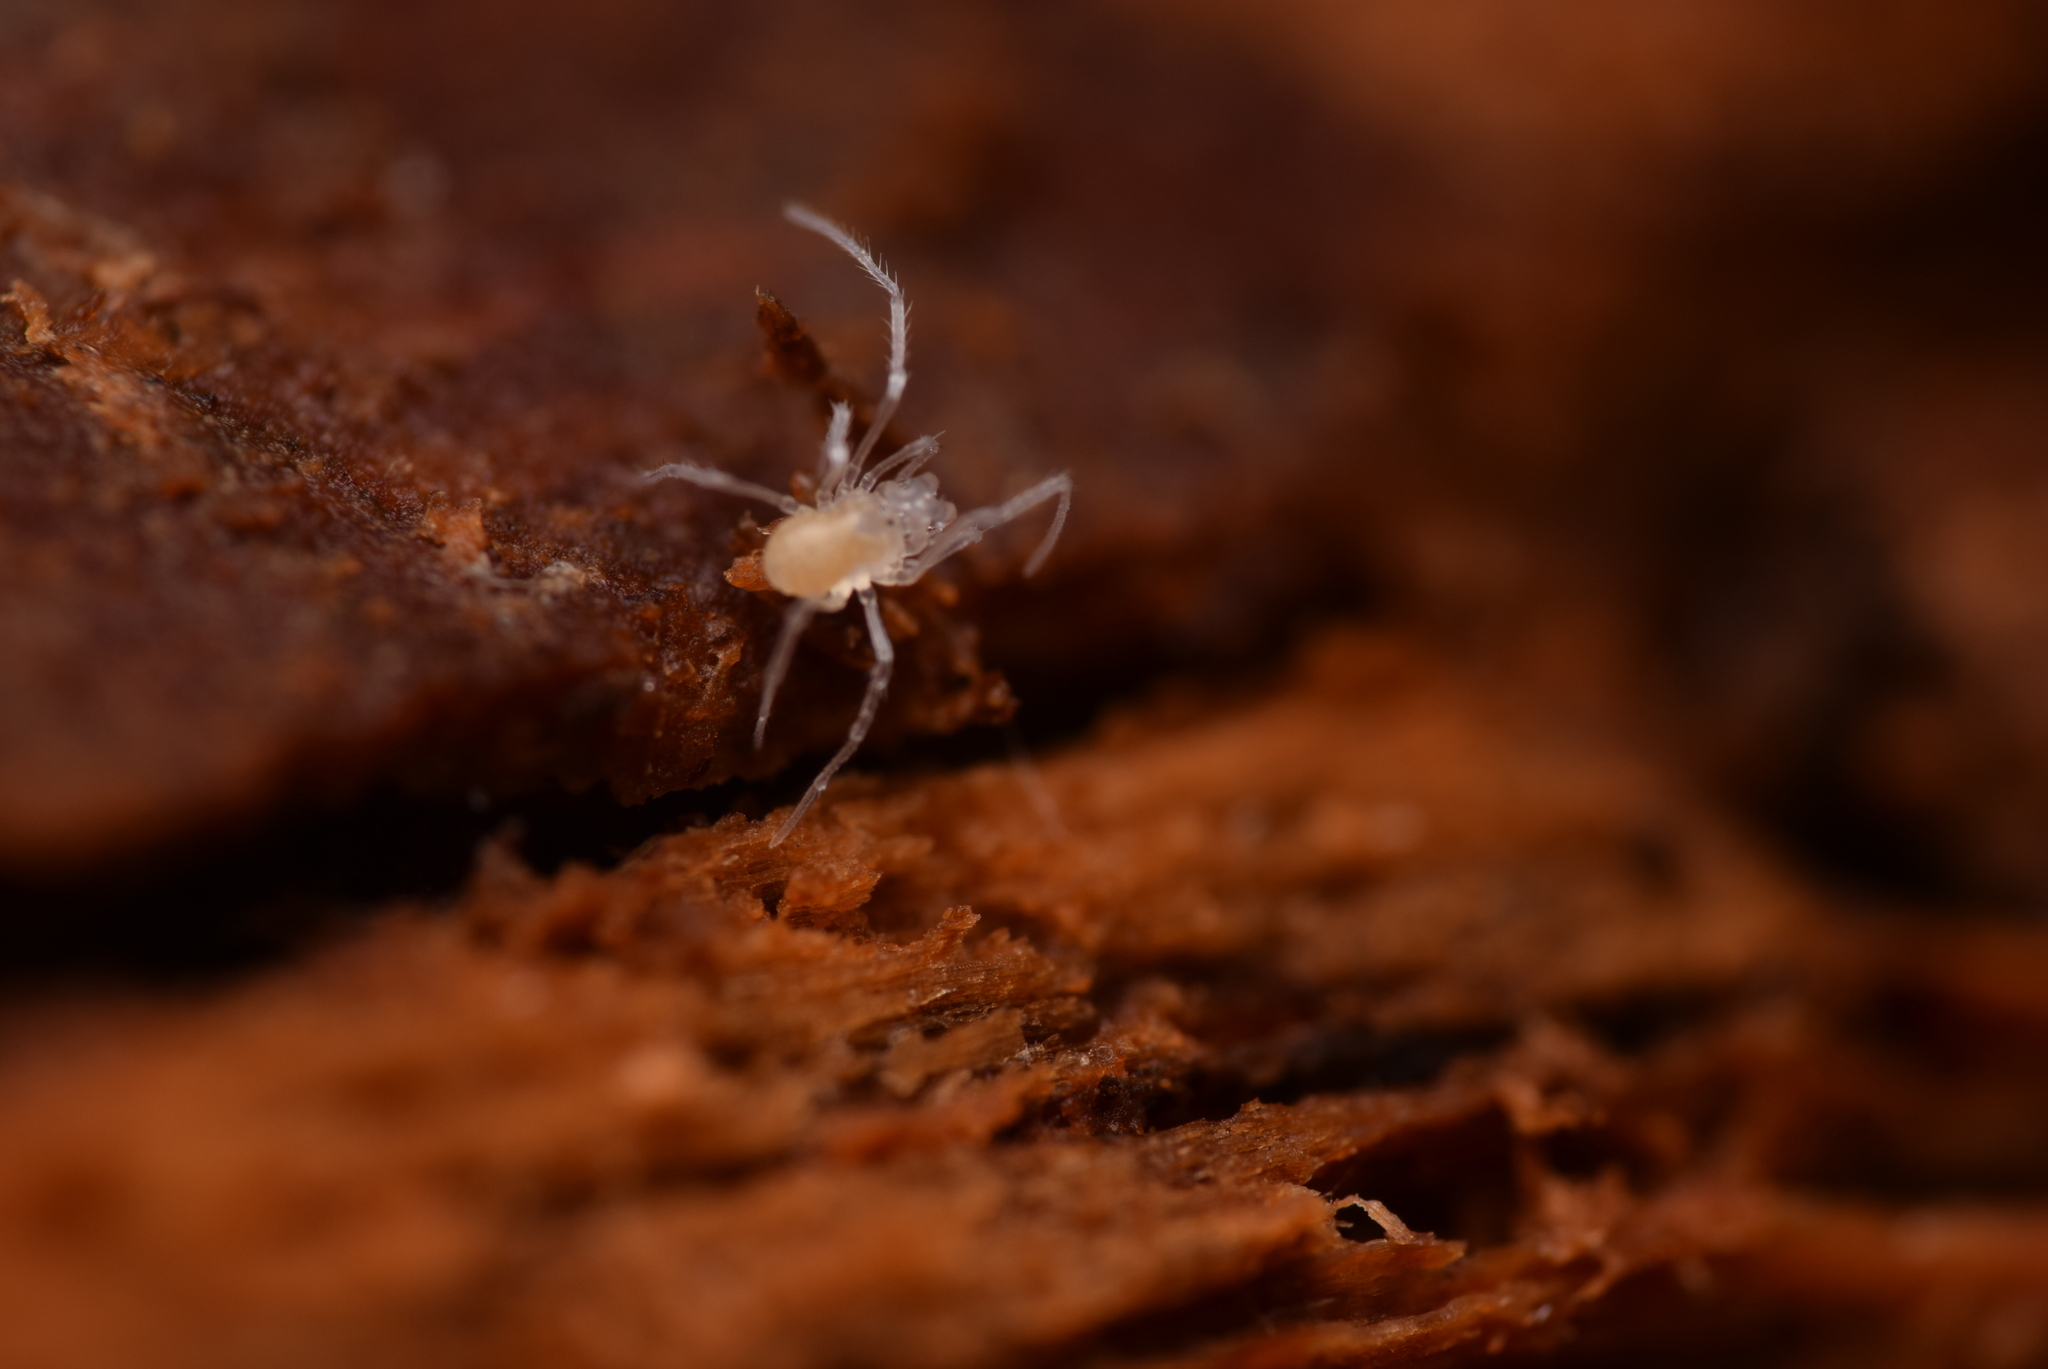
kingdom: Animalia
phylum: Arthropoda
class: Arachnida
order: Opiliones
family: Cladonychiidae
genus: Holoscotolemon
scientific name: Holoscotolemon querilhaci
